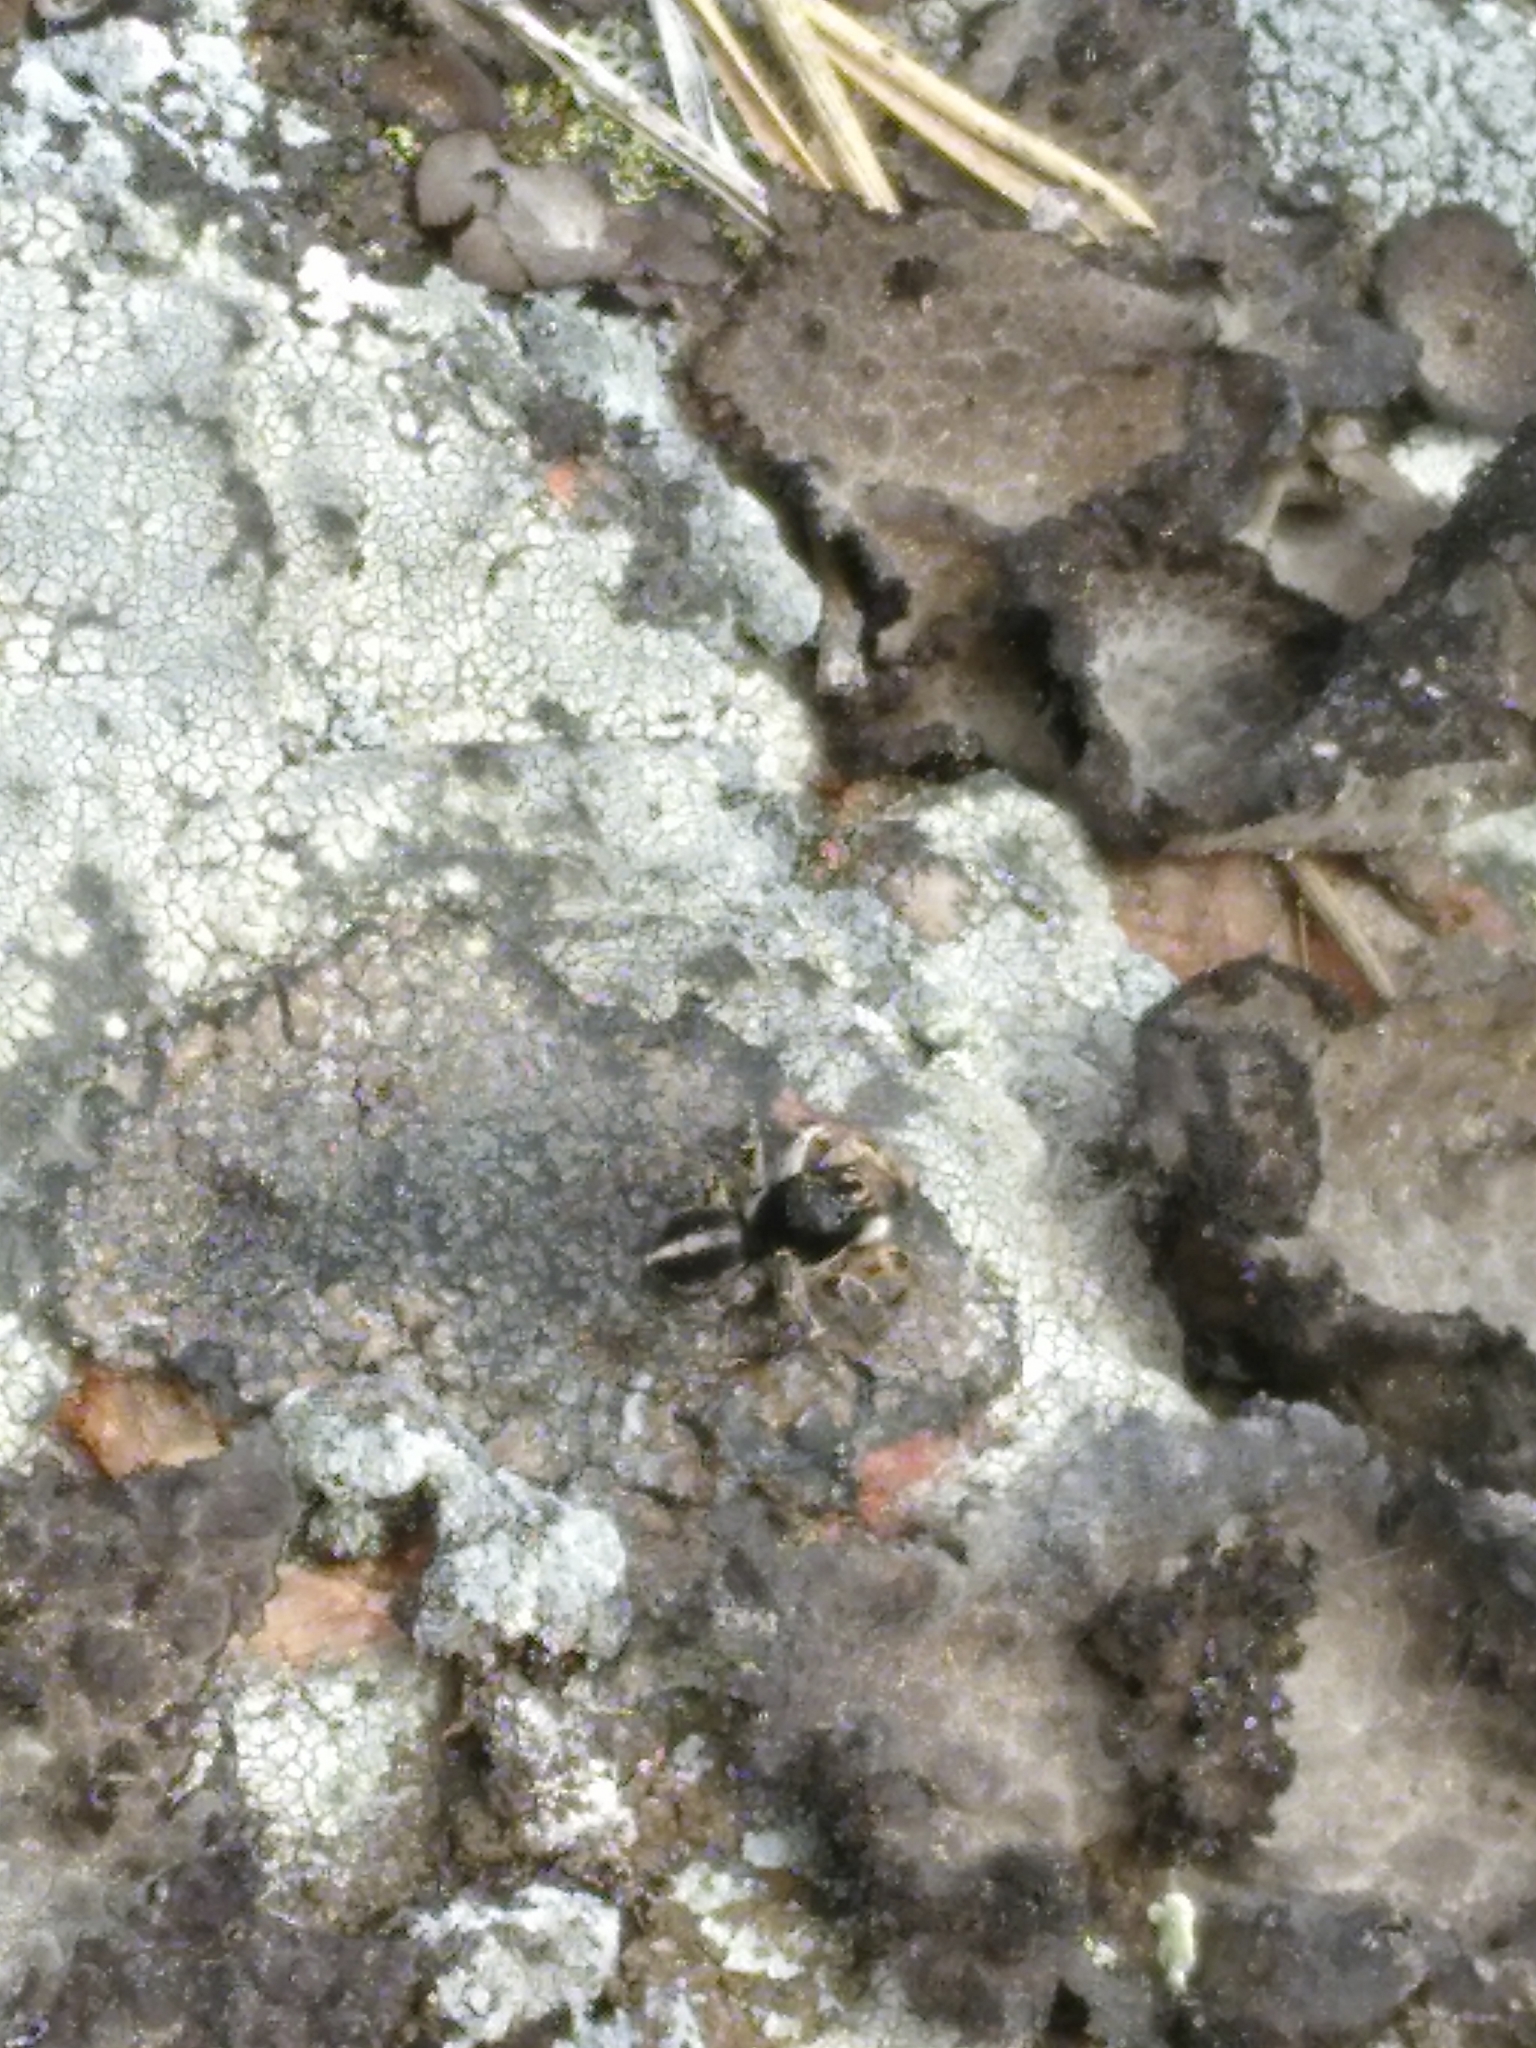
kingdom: Animalia
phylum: Arthropoda
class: Arachnida
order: Araneae
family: Salticidae
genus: Aelurillus
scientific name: Aelurillus v-insignitus
